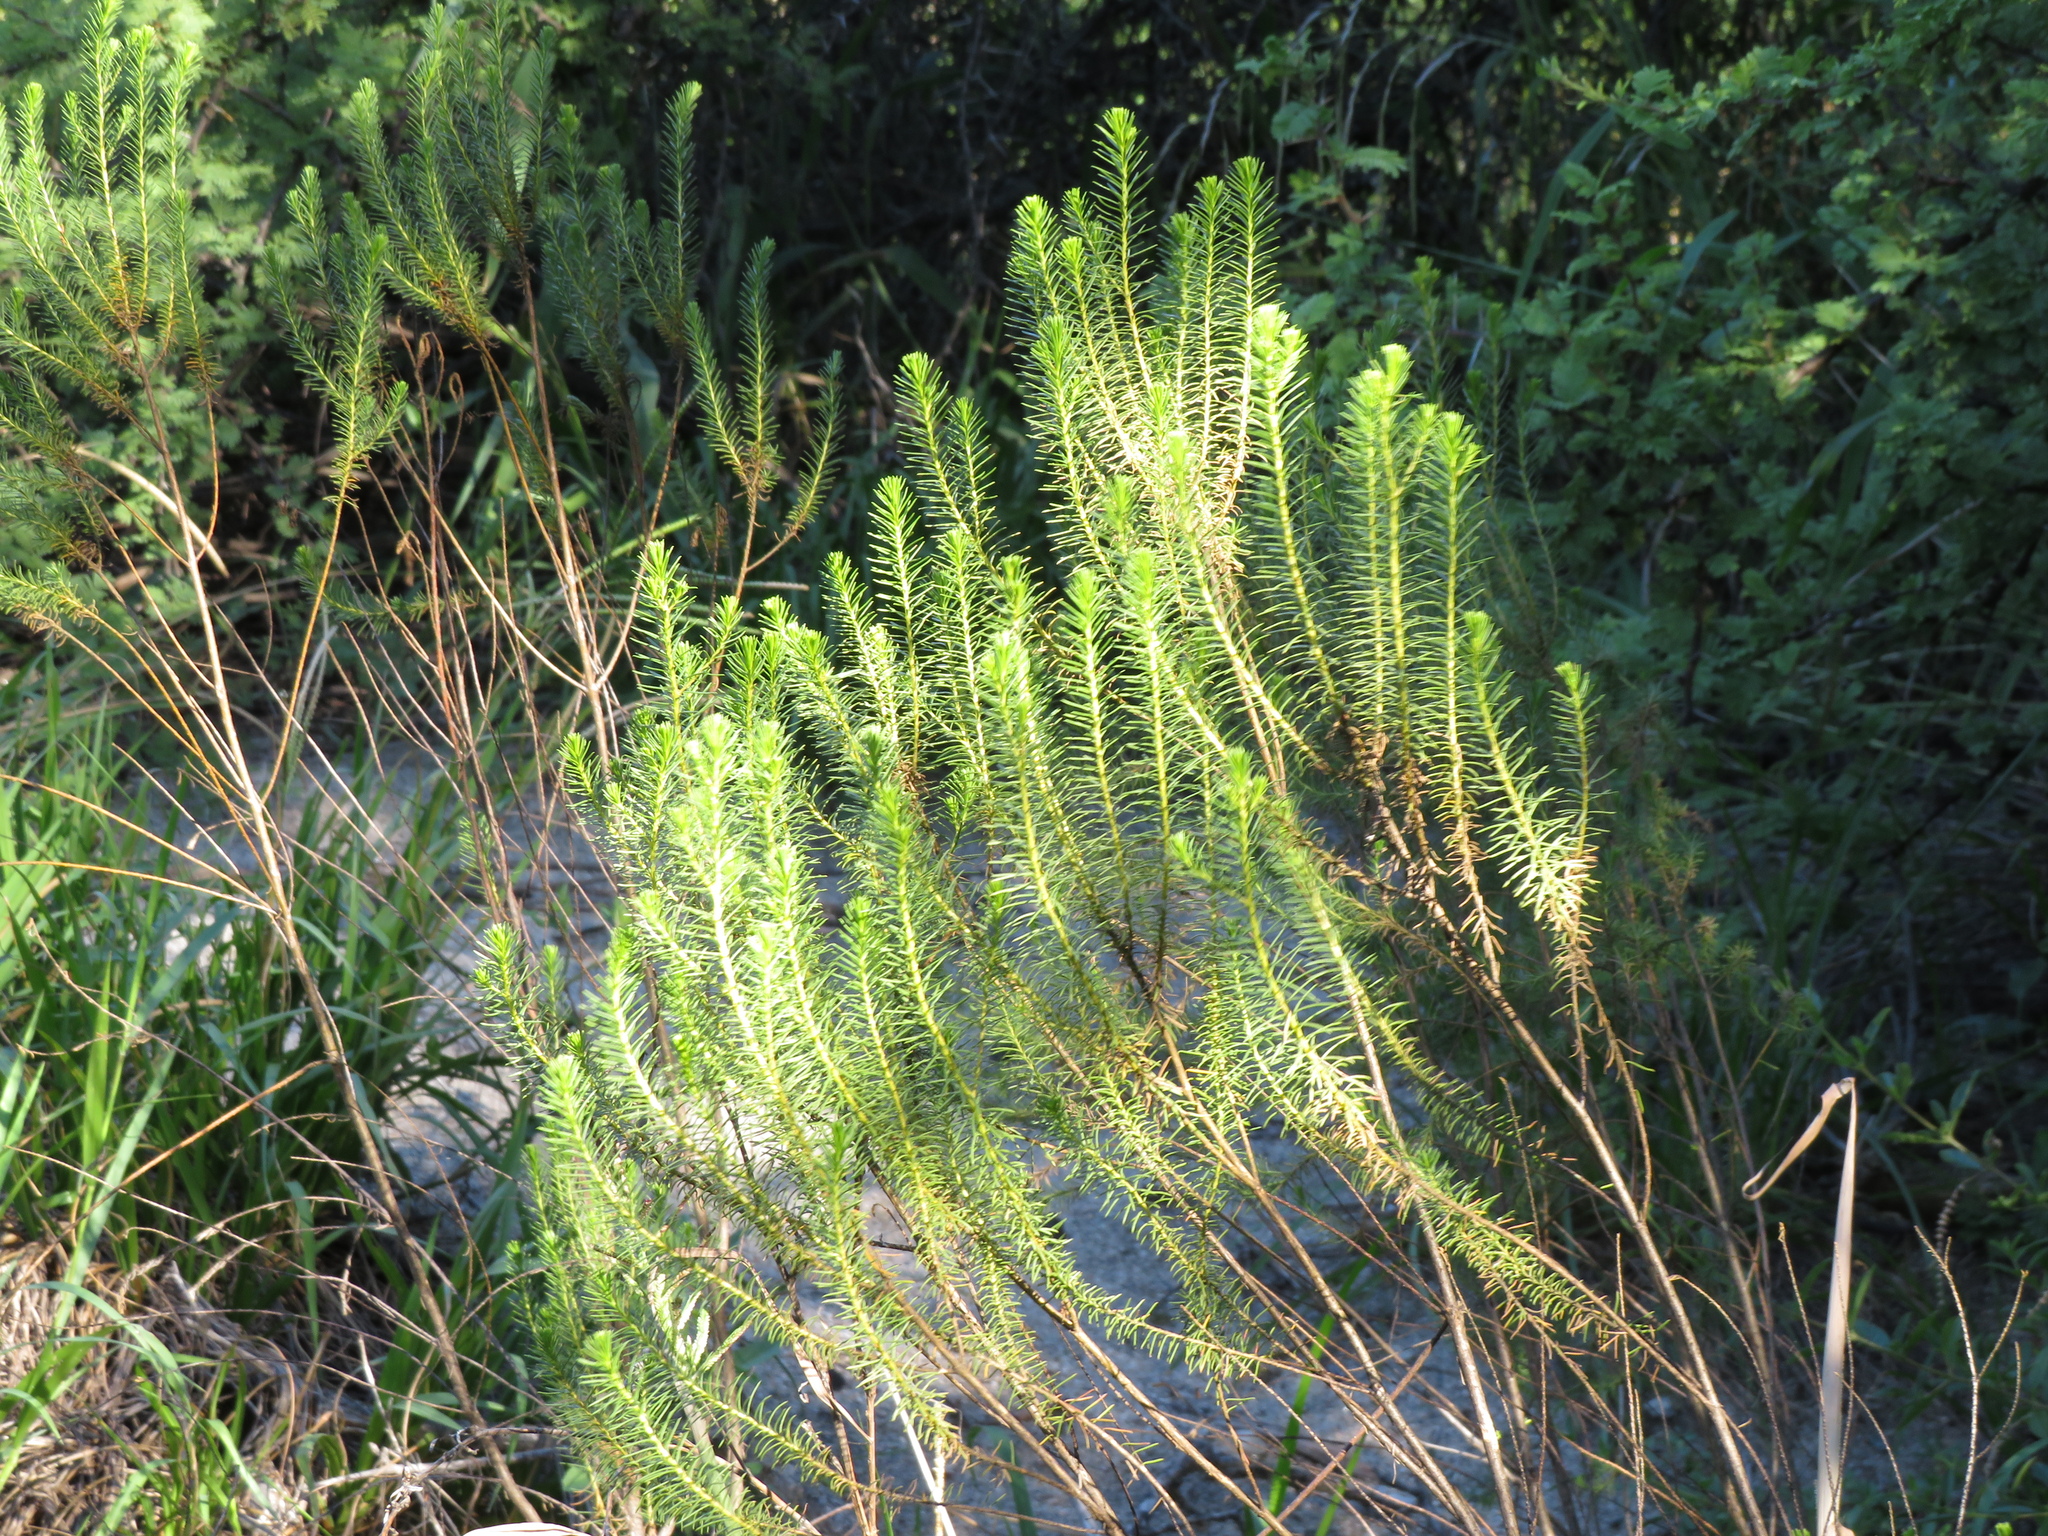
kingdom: Plantae
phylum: Tracheophyta
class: Magnoliopsida
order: Asterales
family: Asteraceae
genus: Baccharis
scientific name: Baccharis aliena
